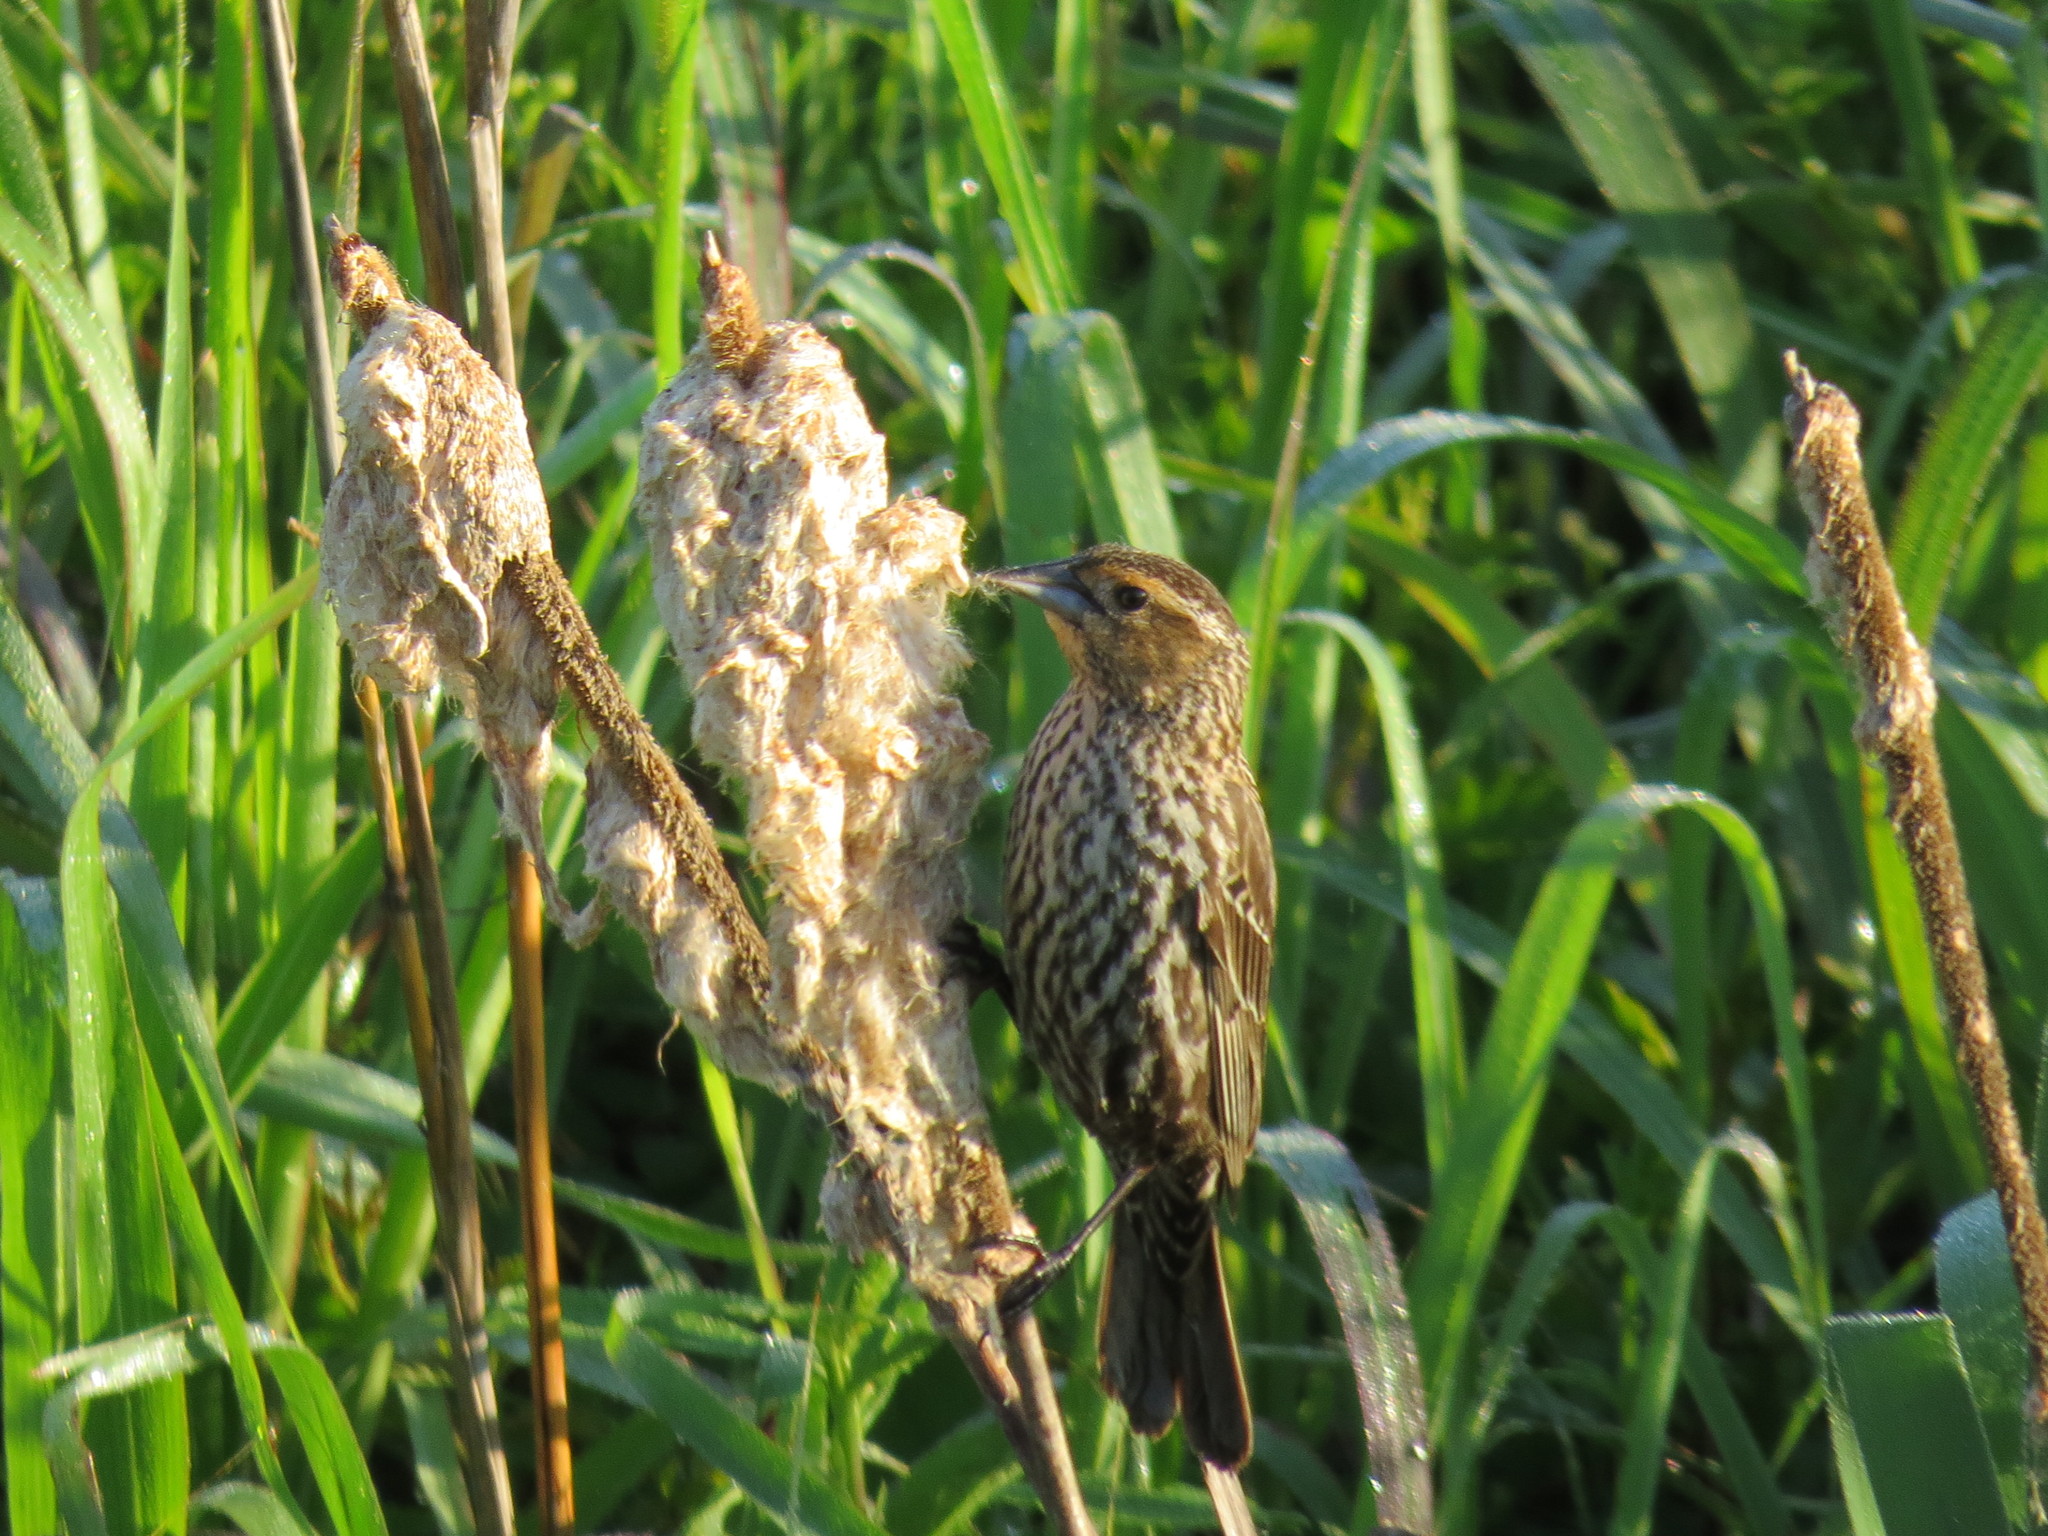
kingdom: Animalia
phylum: Chordata
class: Aves
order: Passeriformes
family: Icteridae
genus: Agelaius
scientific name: Agelaius phoeniceus
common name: Red-winged blackbird
